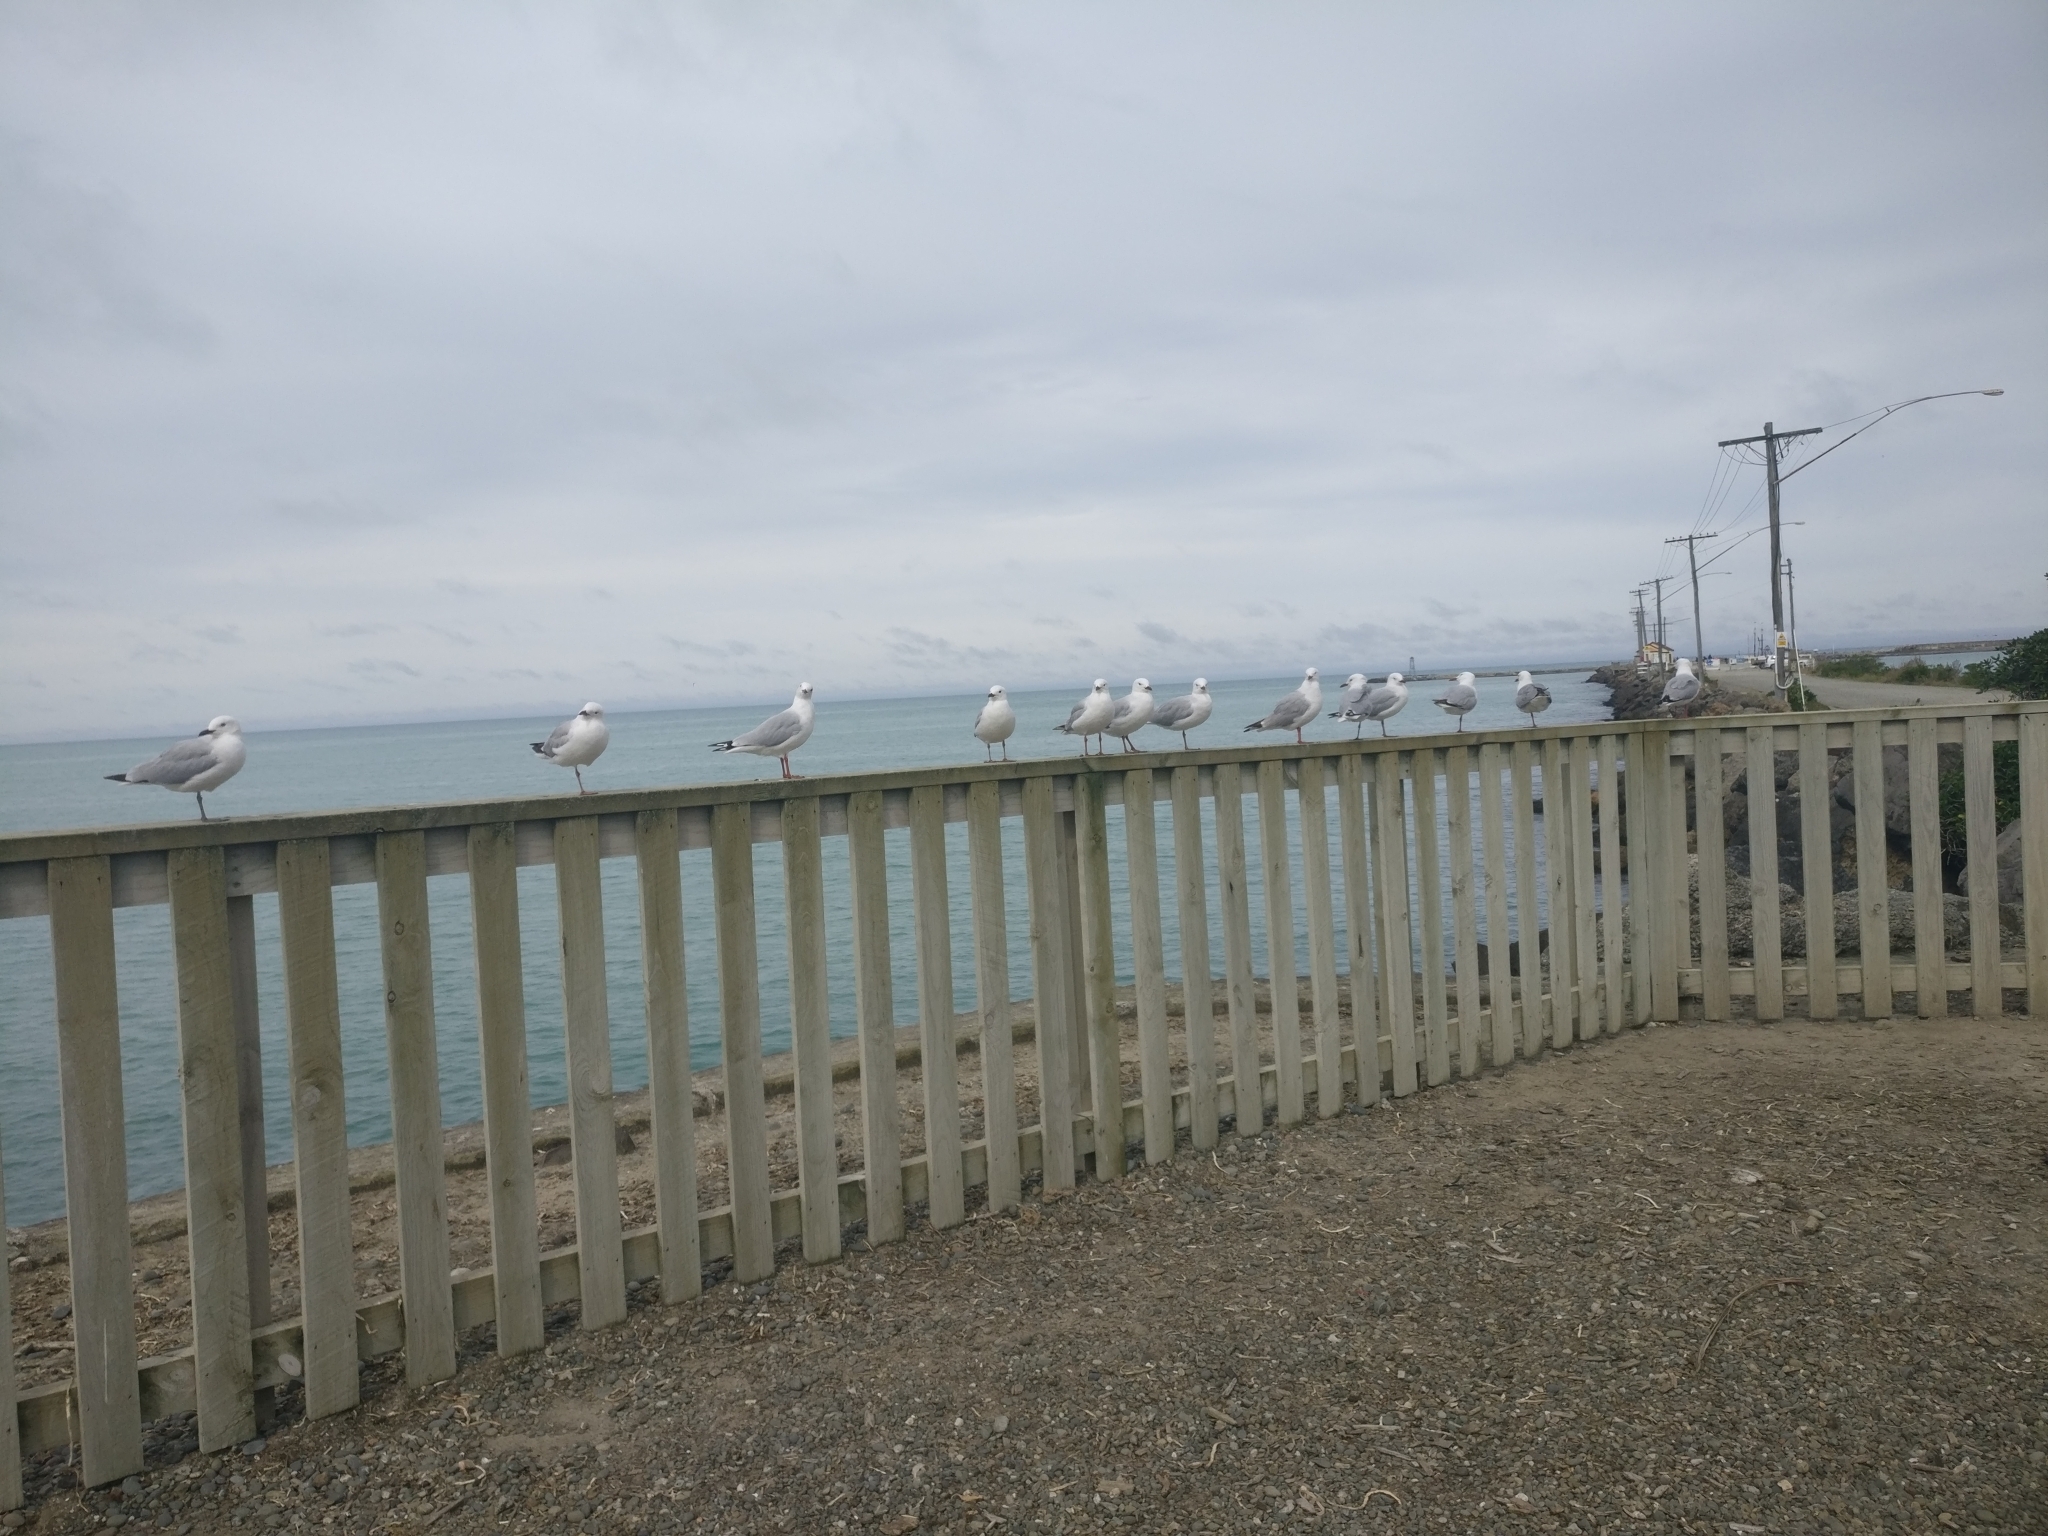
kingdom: Animalia
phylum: Chordata
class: Aves
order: Charadriiformes
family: Laridae
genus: Chroicocephalus
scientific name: Chroicocephalus novaehollandiae
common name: Silver gull
